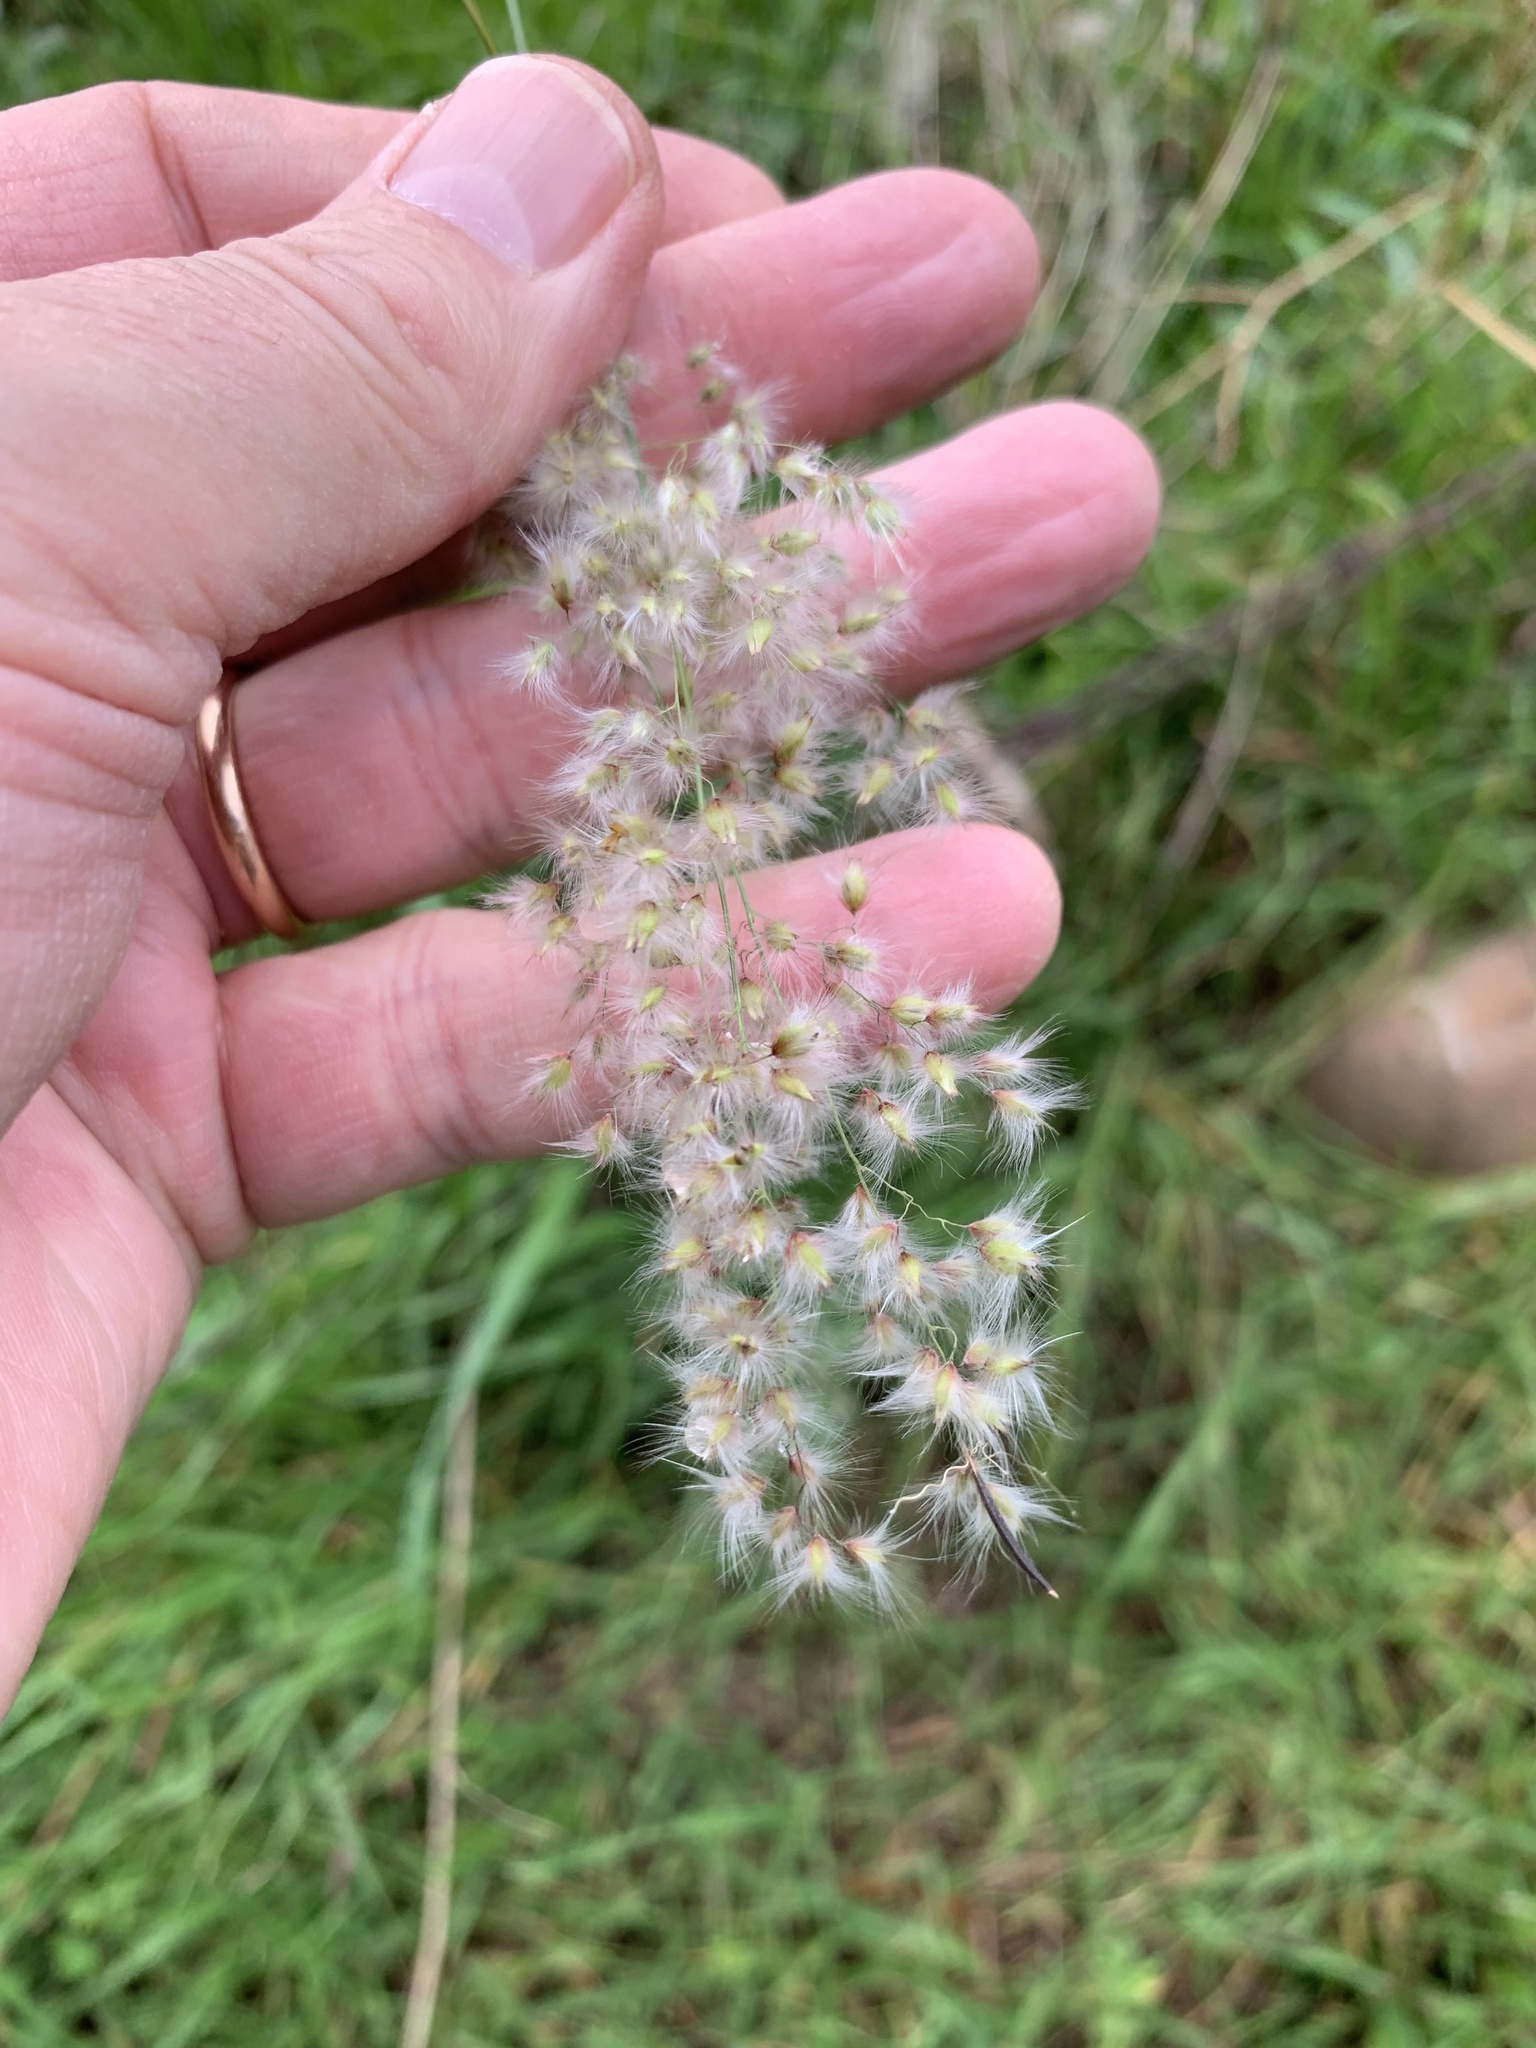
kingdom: Plantae
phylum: Tracheophyta
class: Liliopsida
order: Poales
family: Poaceae
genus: Melinis
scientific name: Melinis repens
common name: Rose natal grass
